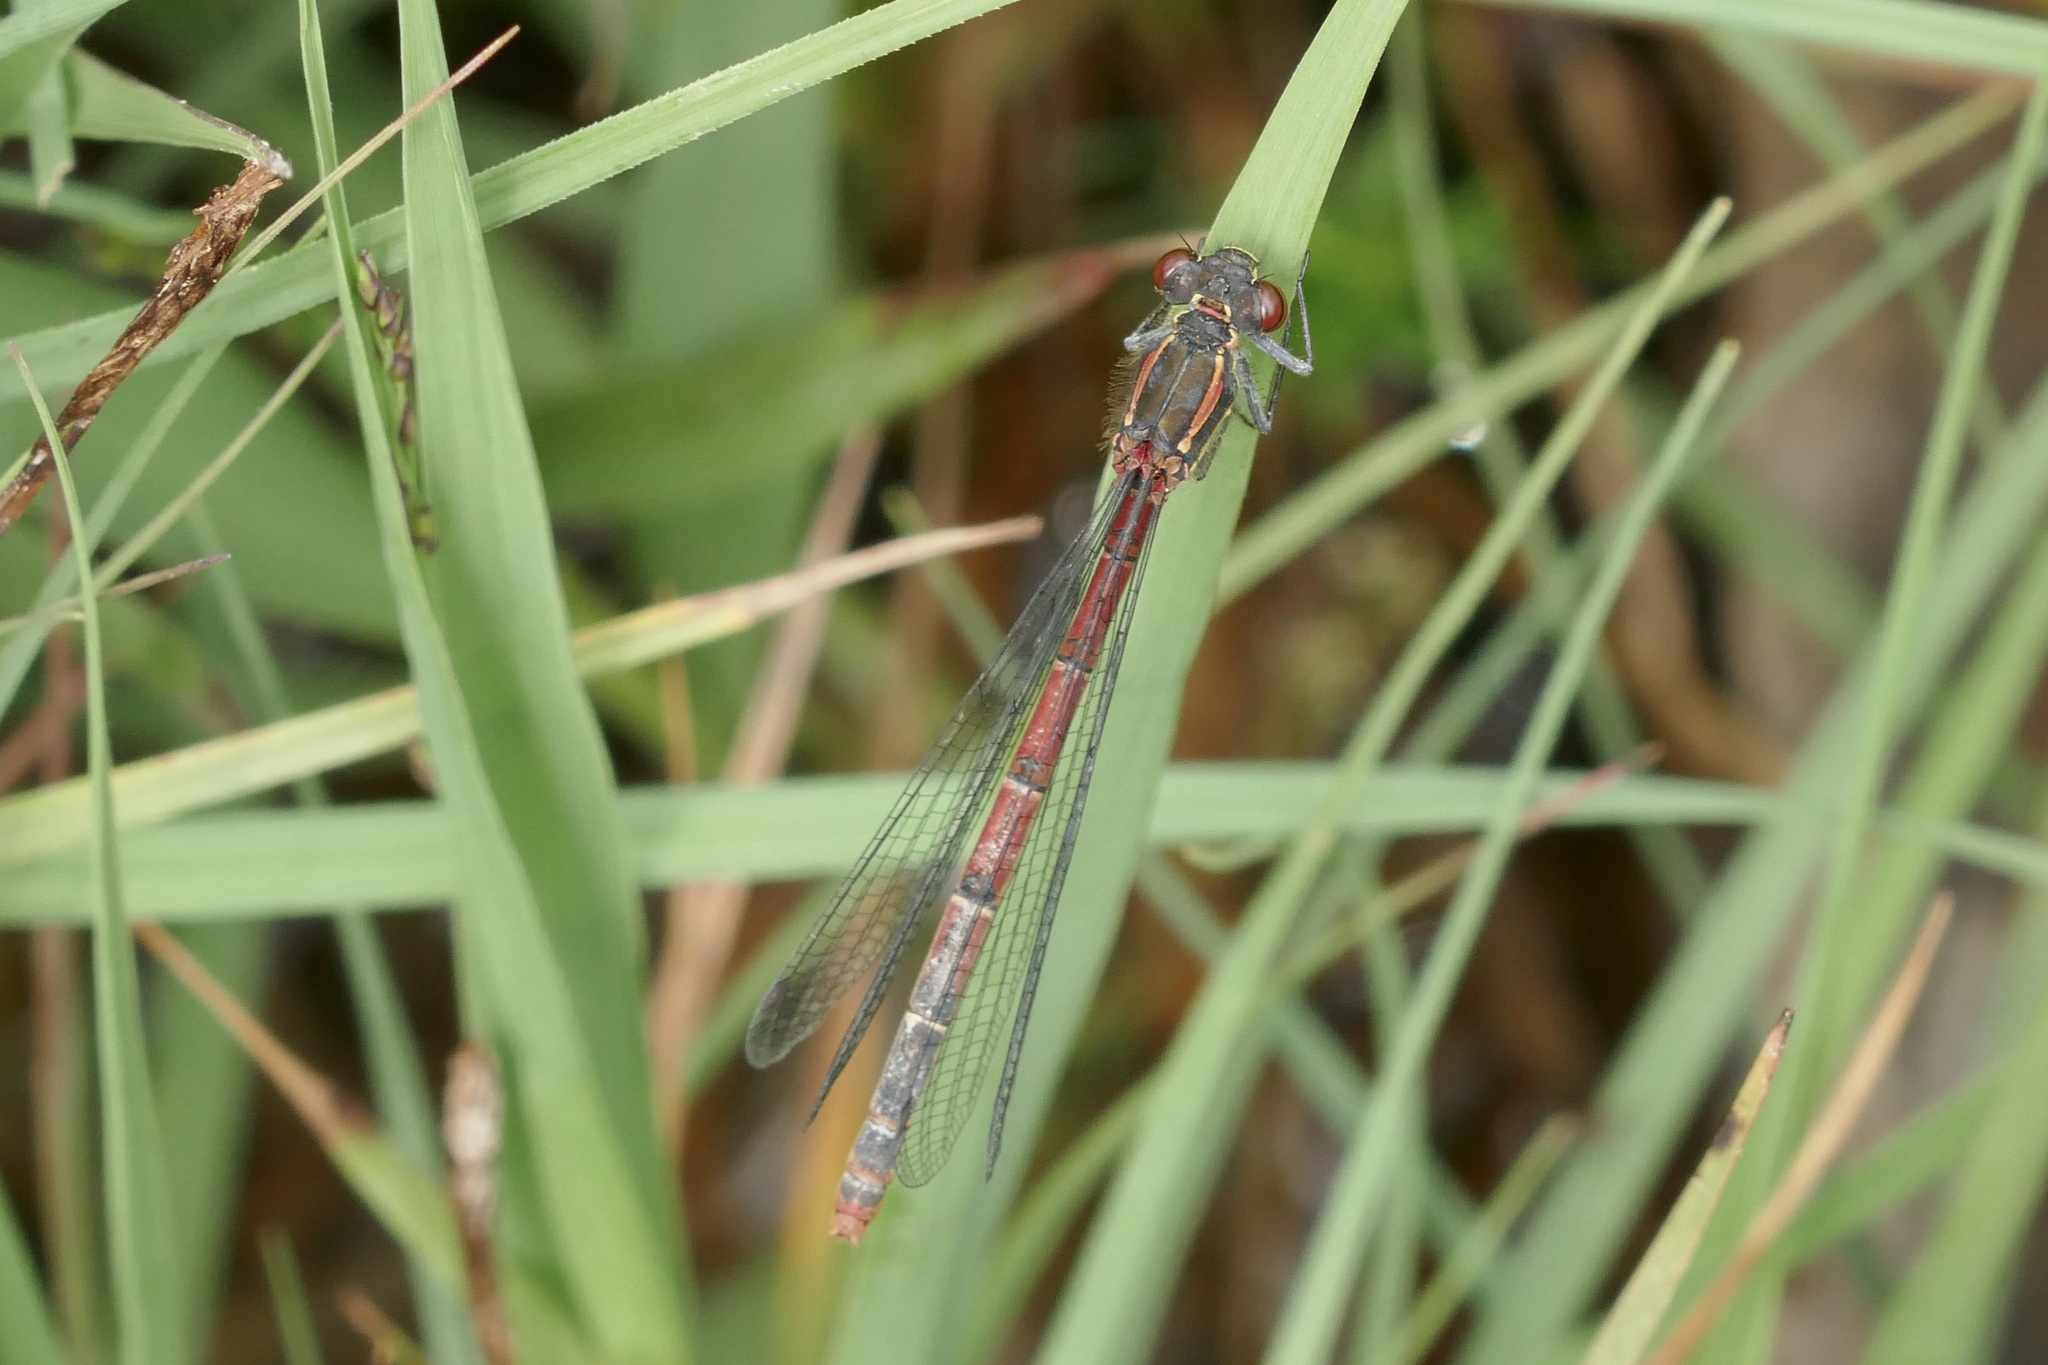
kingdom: Animalia
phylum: Arthropoda
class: Insecta
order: Odonata
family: Coenagrionidae
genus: Pyrrhosoma
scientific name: Pyrrhosoma nymphula
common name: Large red damsel
